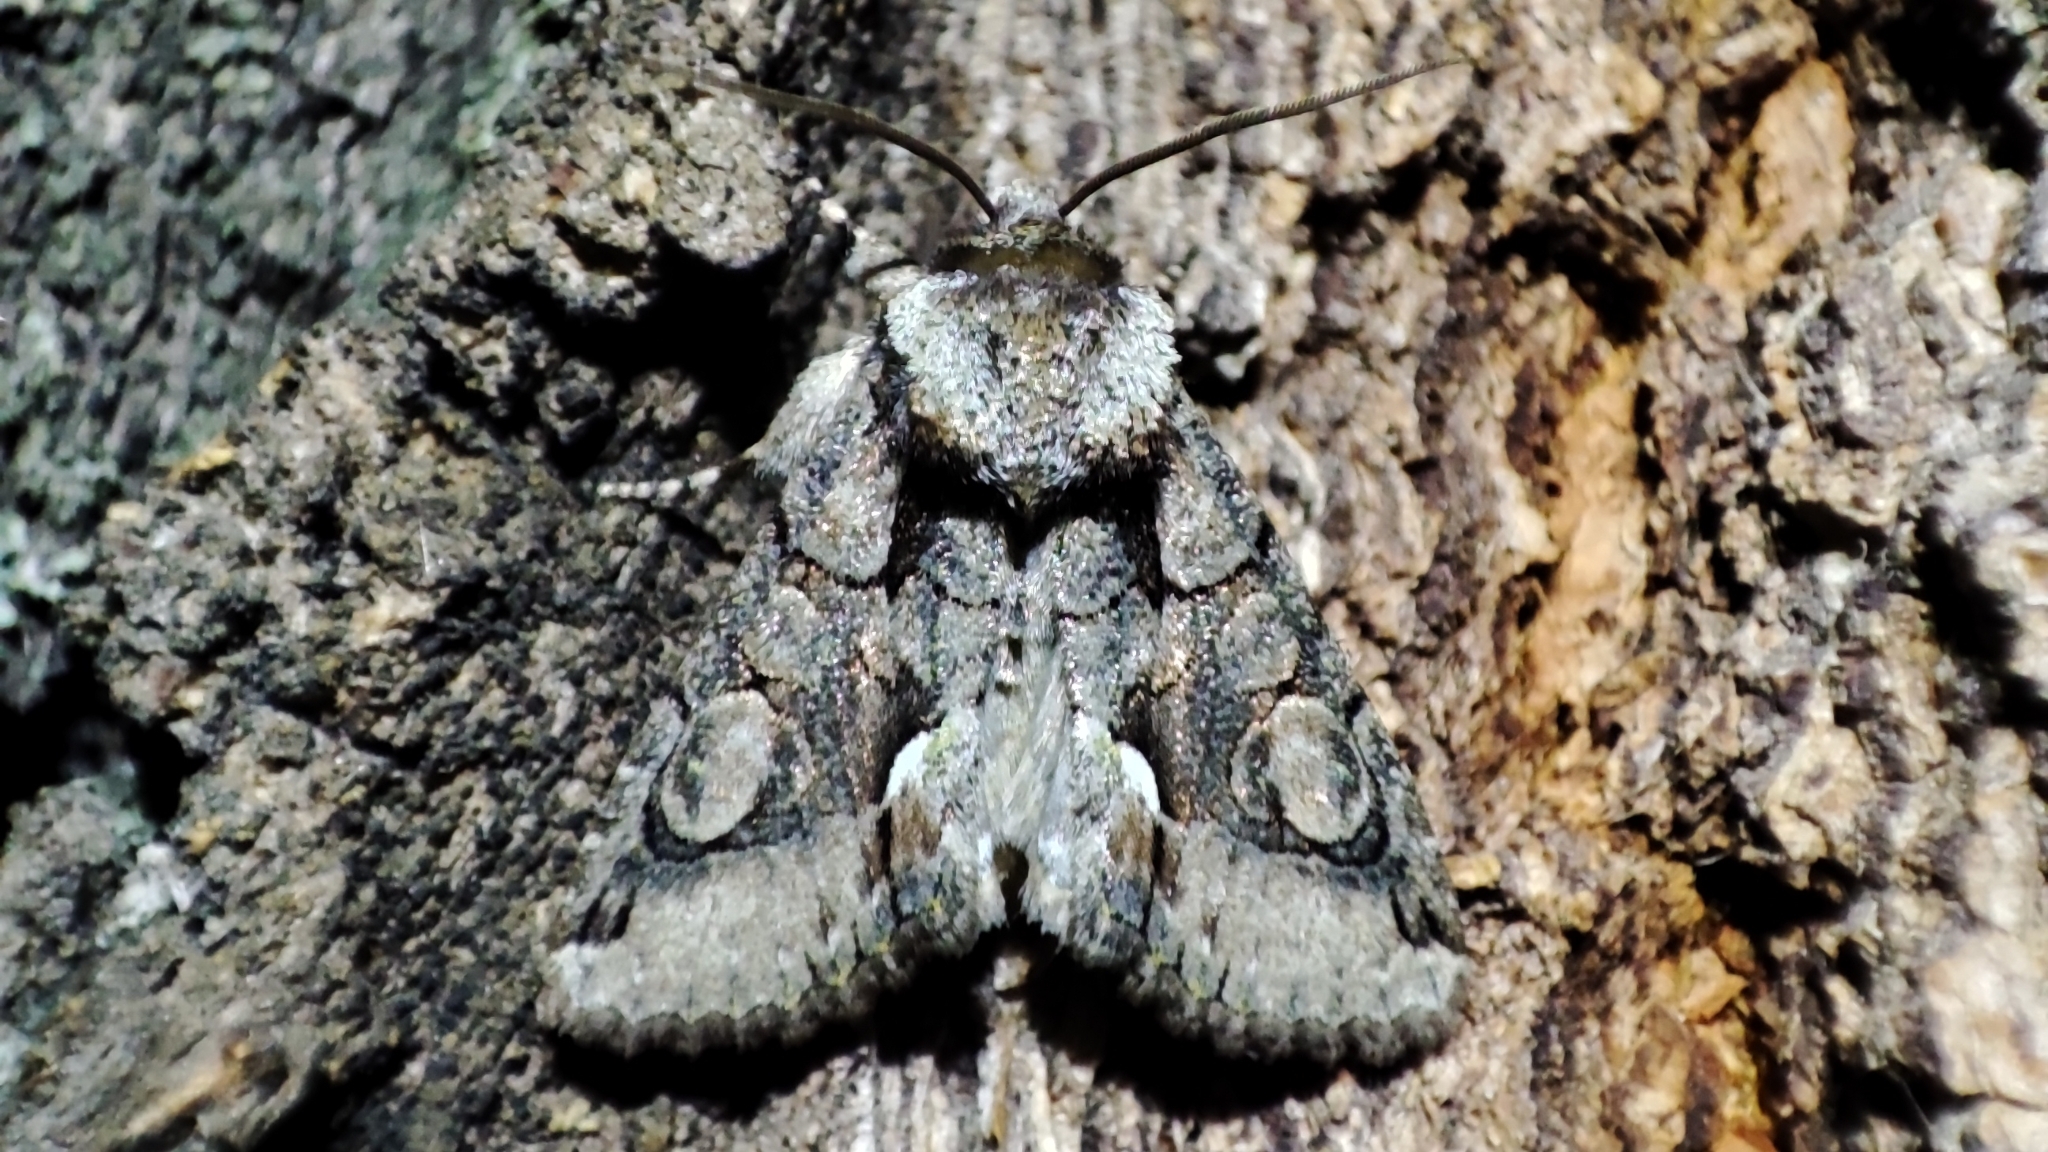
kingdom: Animalia
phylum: Arthropoda
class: Insecta
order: Lepidoptera
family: Noctuidae
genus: Allophyes
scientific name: Allophyes oxyacanthae
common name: Green-brindled crescent
